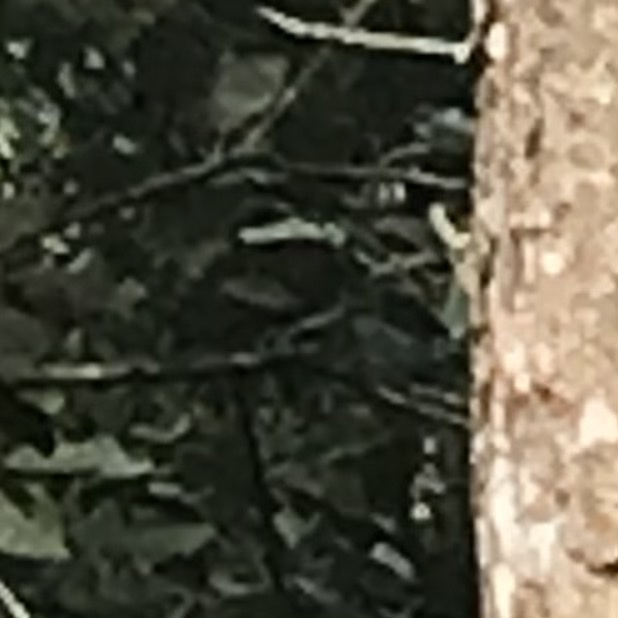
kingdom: Animalia
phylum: Chordata
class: Squamata
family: Agamidae
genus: Draco
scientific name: Draco dussumieri
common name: Southern flying lizard
